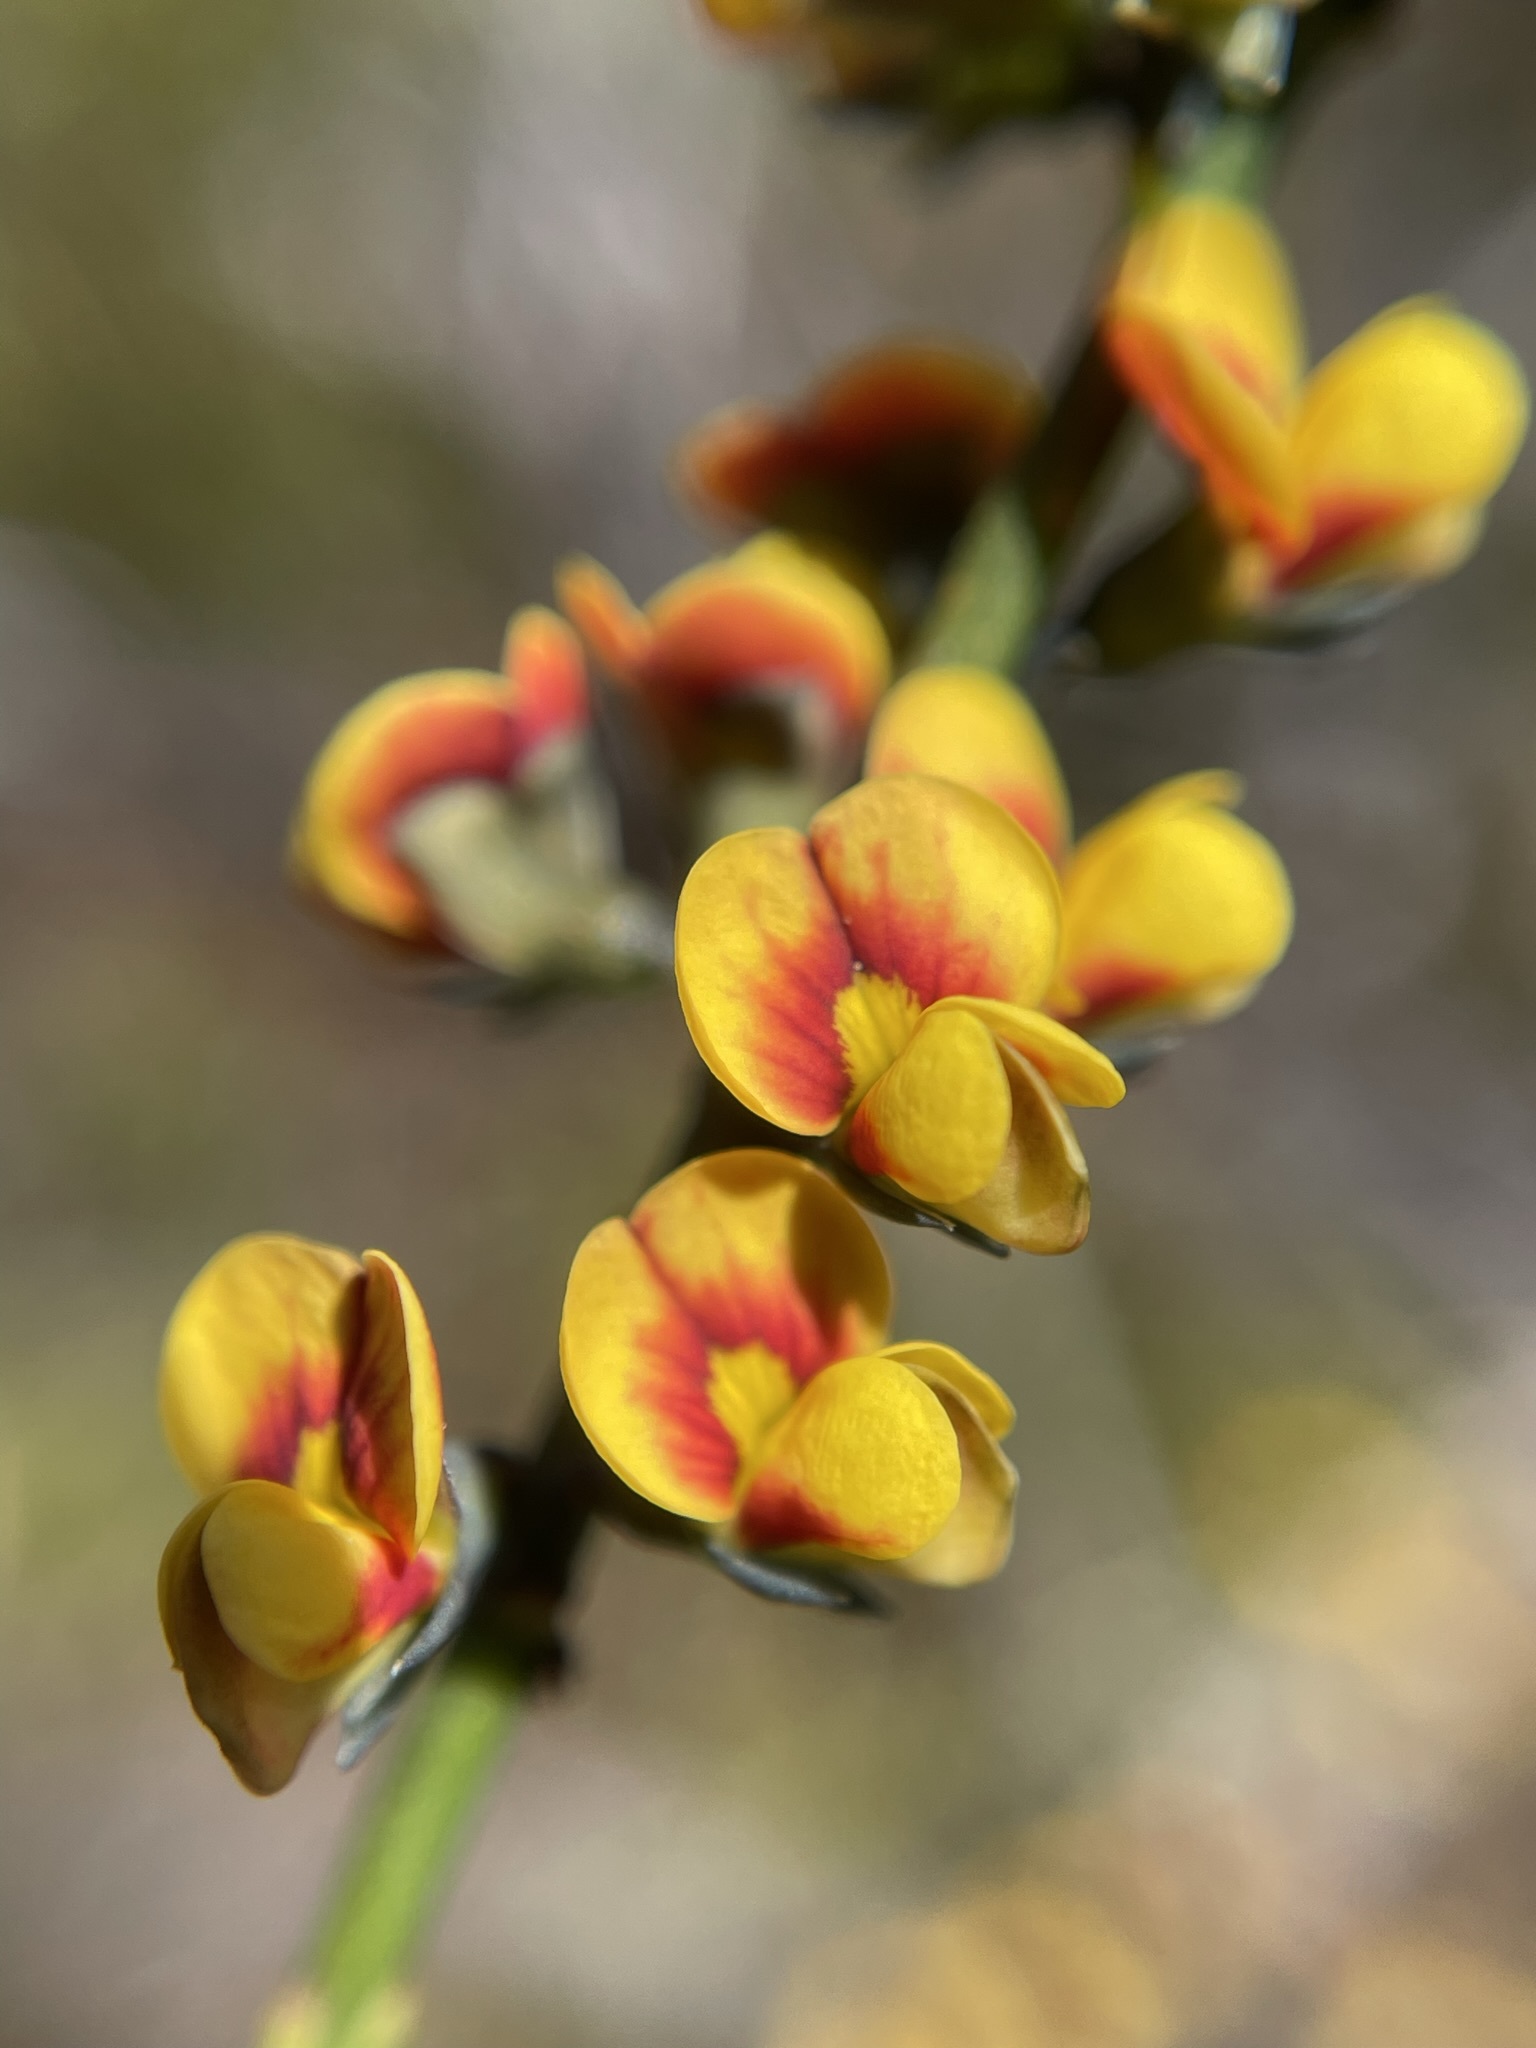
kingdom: Plantae
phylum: Tracheophyta
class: Magnoliopsida
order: Fabales
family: Fabaceae
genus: Sphaerolobium
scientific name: Sphaerolobium minus
